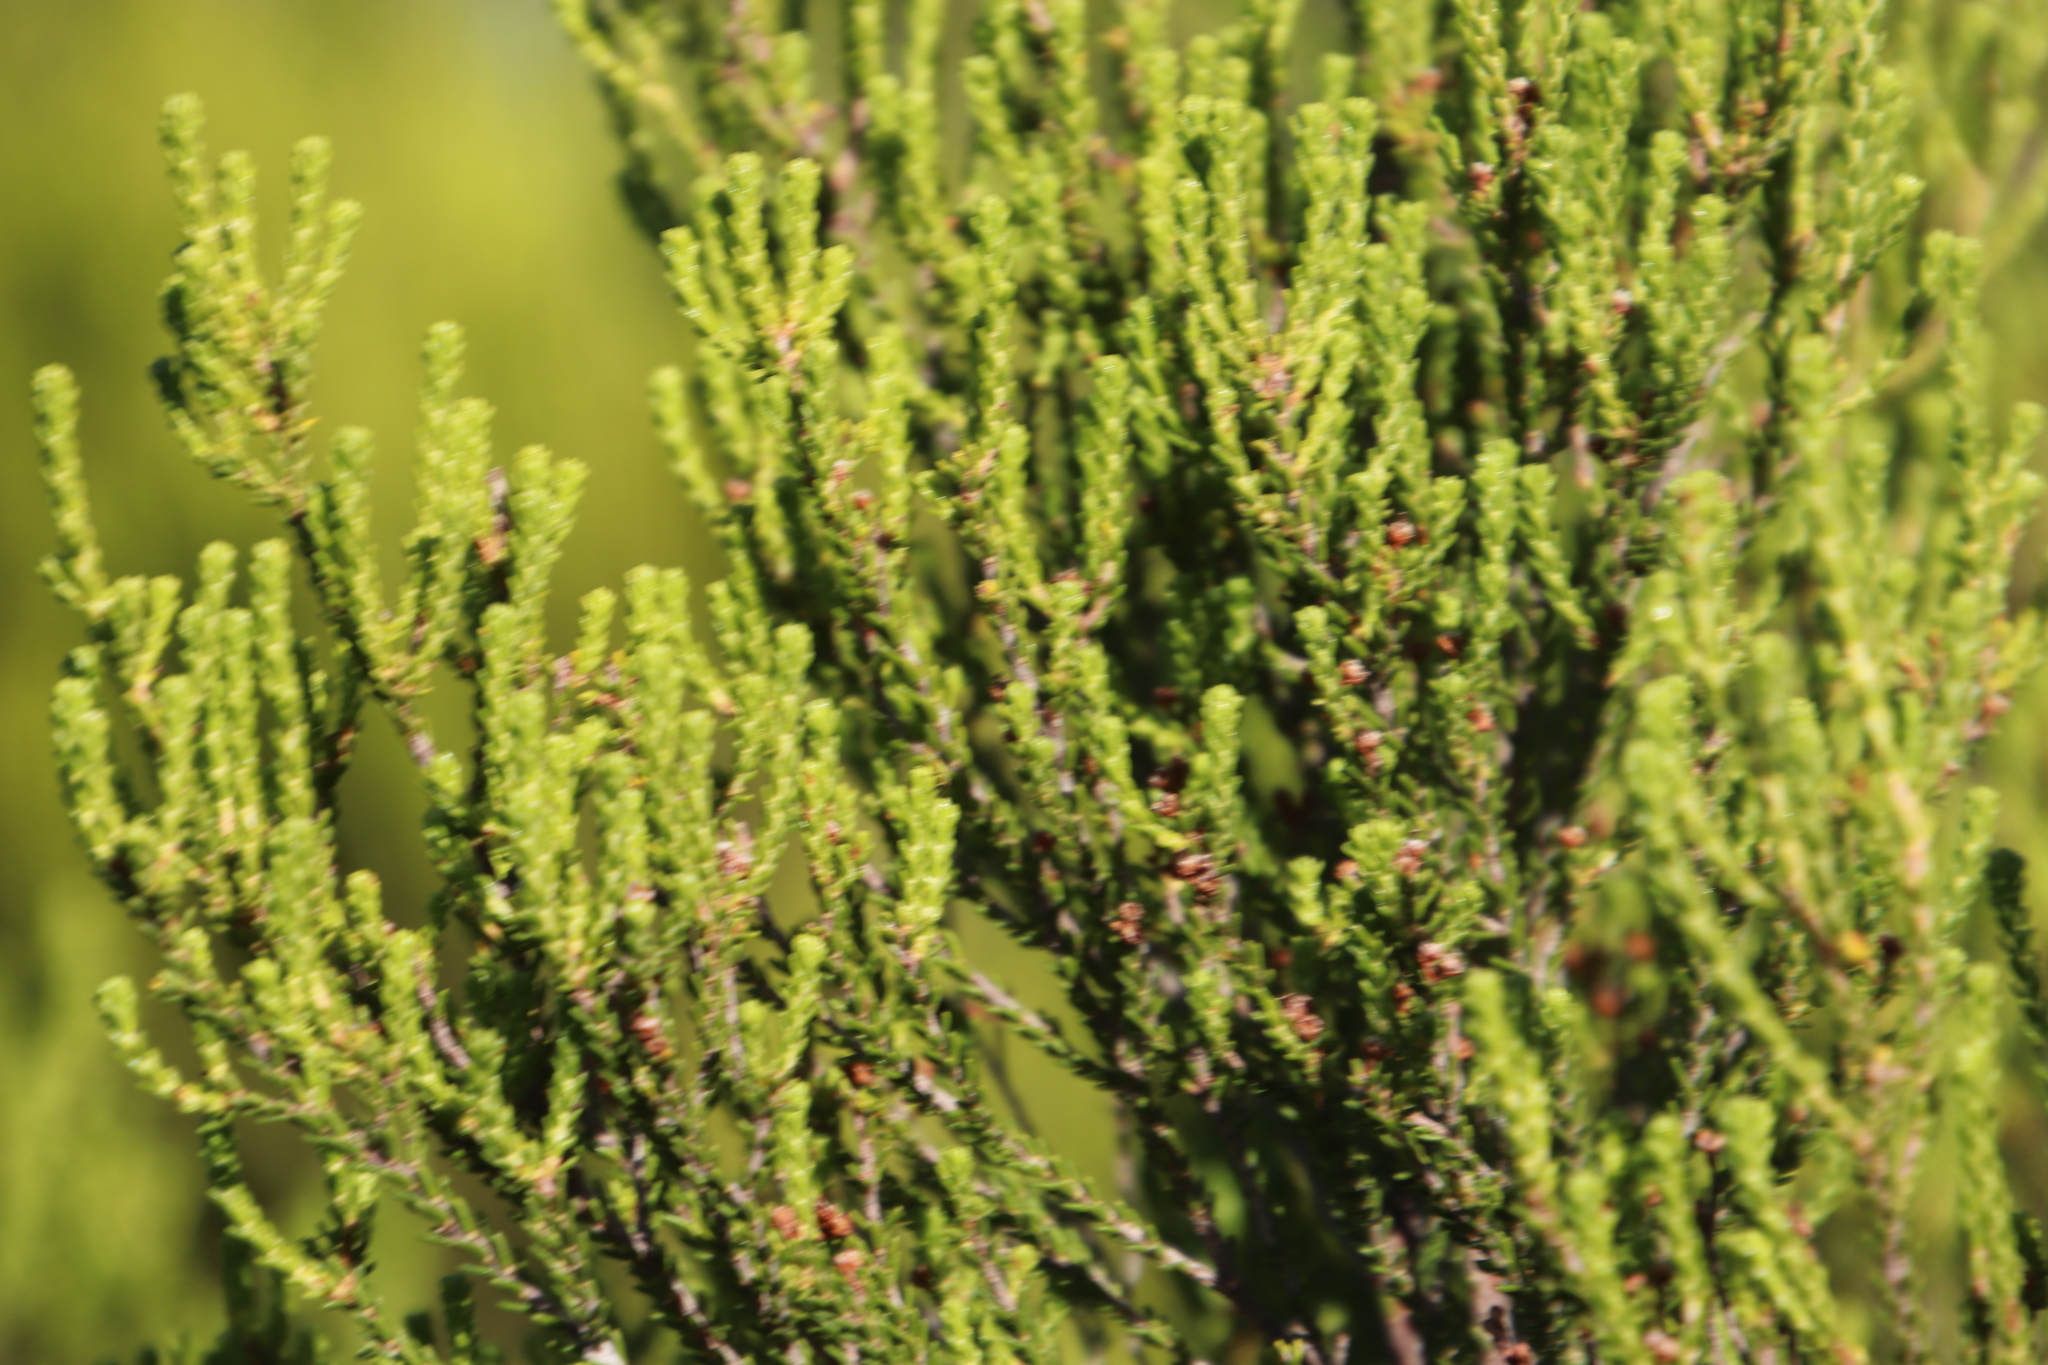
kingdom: Plantae
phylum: Tracheophyta
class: Magnoliopsida
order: Ericales
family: Ericaceae
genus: Erica
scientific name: Erica tristis
